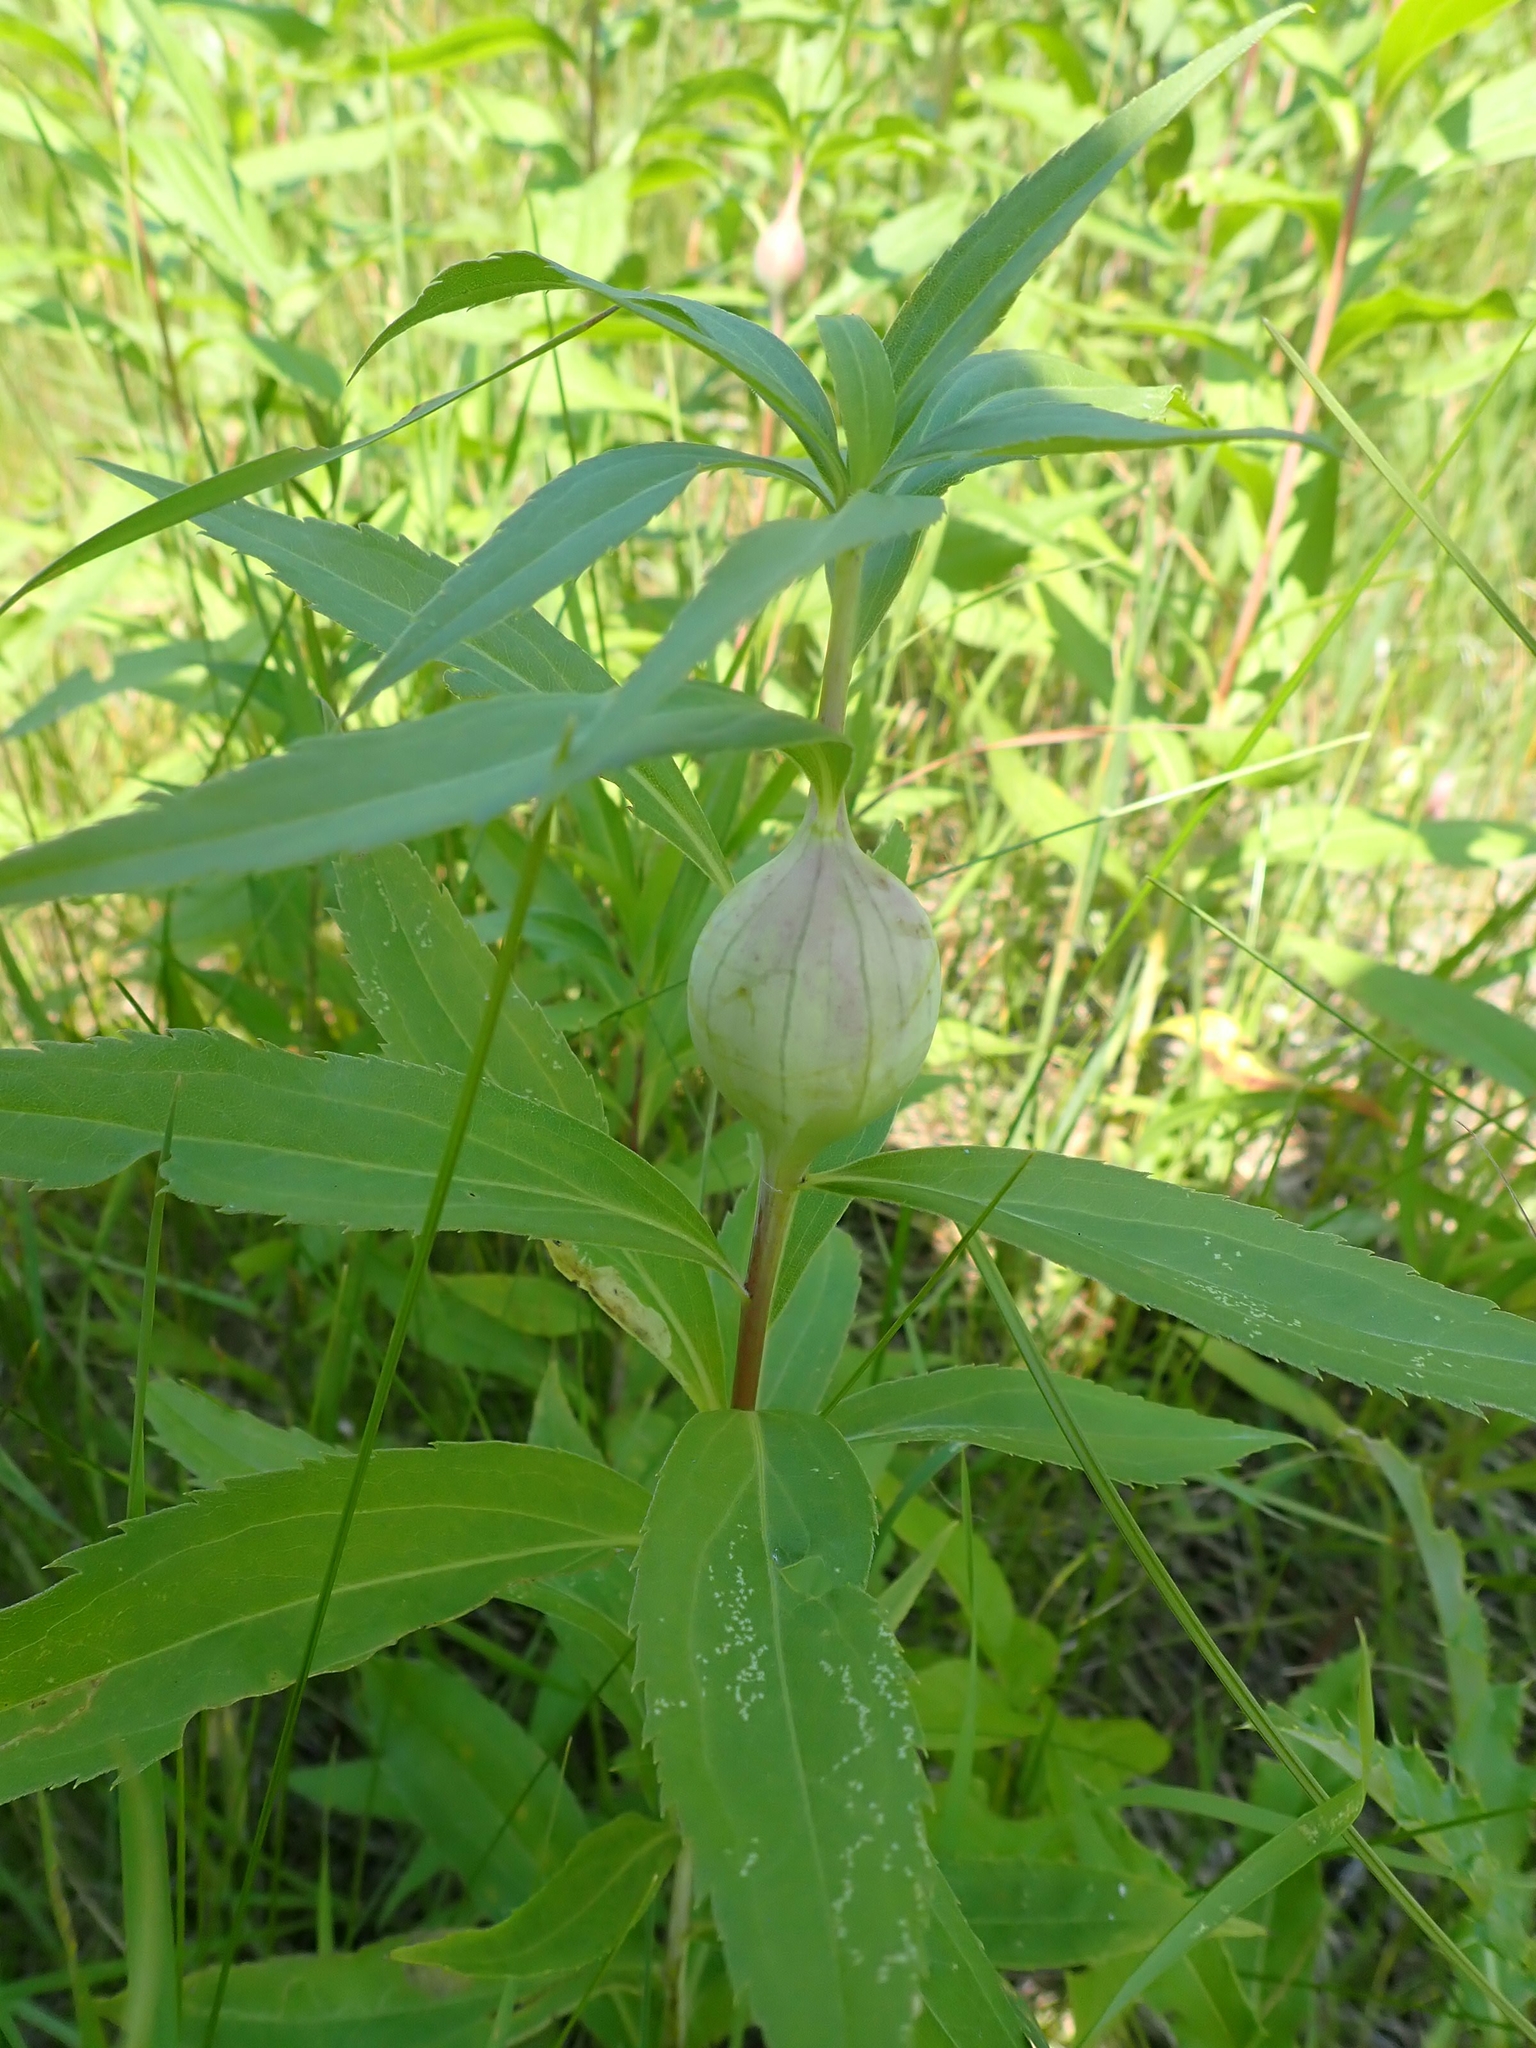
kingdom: Animalia
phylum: Arthropoda
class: Insecta
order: Diptera
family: Tephritidae
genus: Eurosta
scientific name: Eurosta solidaginis
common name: Goldenrod gall fly
